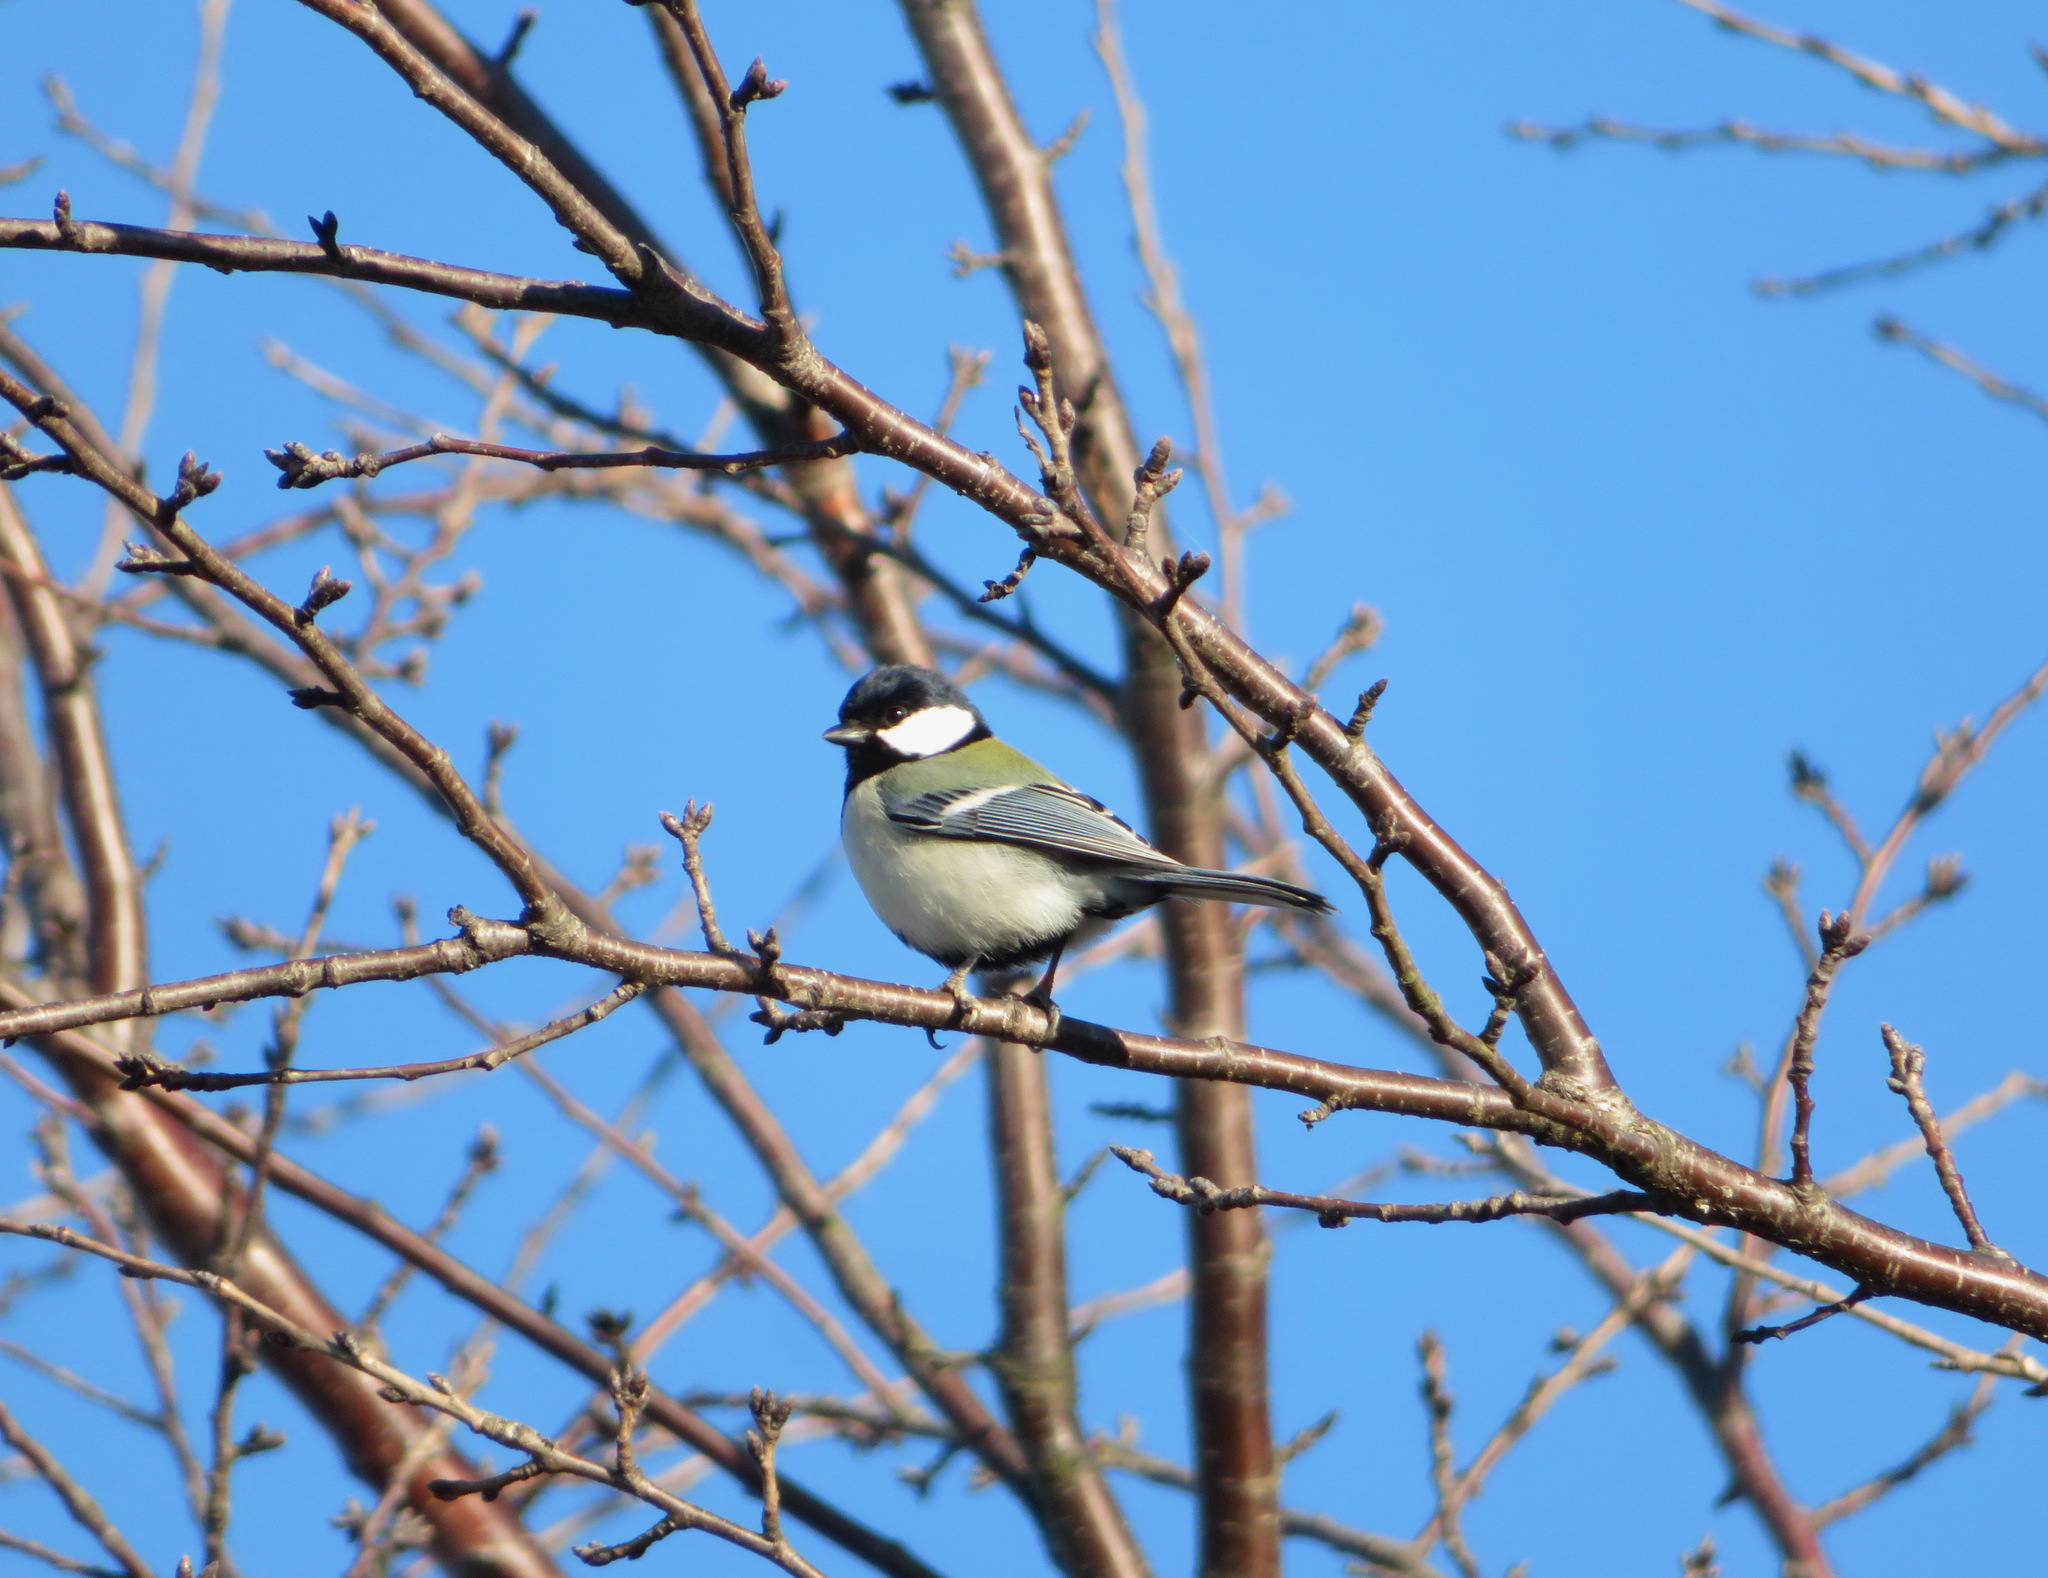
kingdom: Animalia
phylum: Chordata
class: Aves
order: Passeriformes
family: Paridae
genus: Parus
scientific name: Parus minor
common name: Japanese tit
